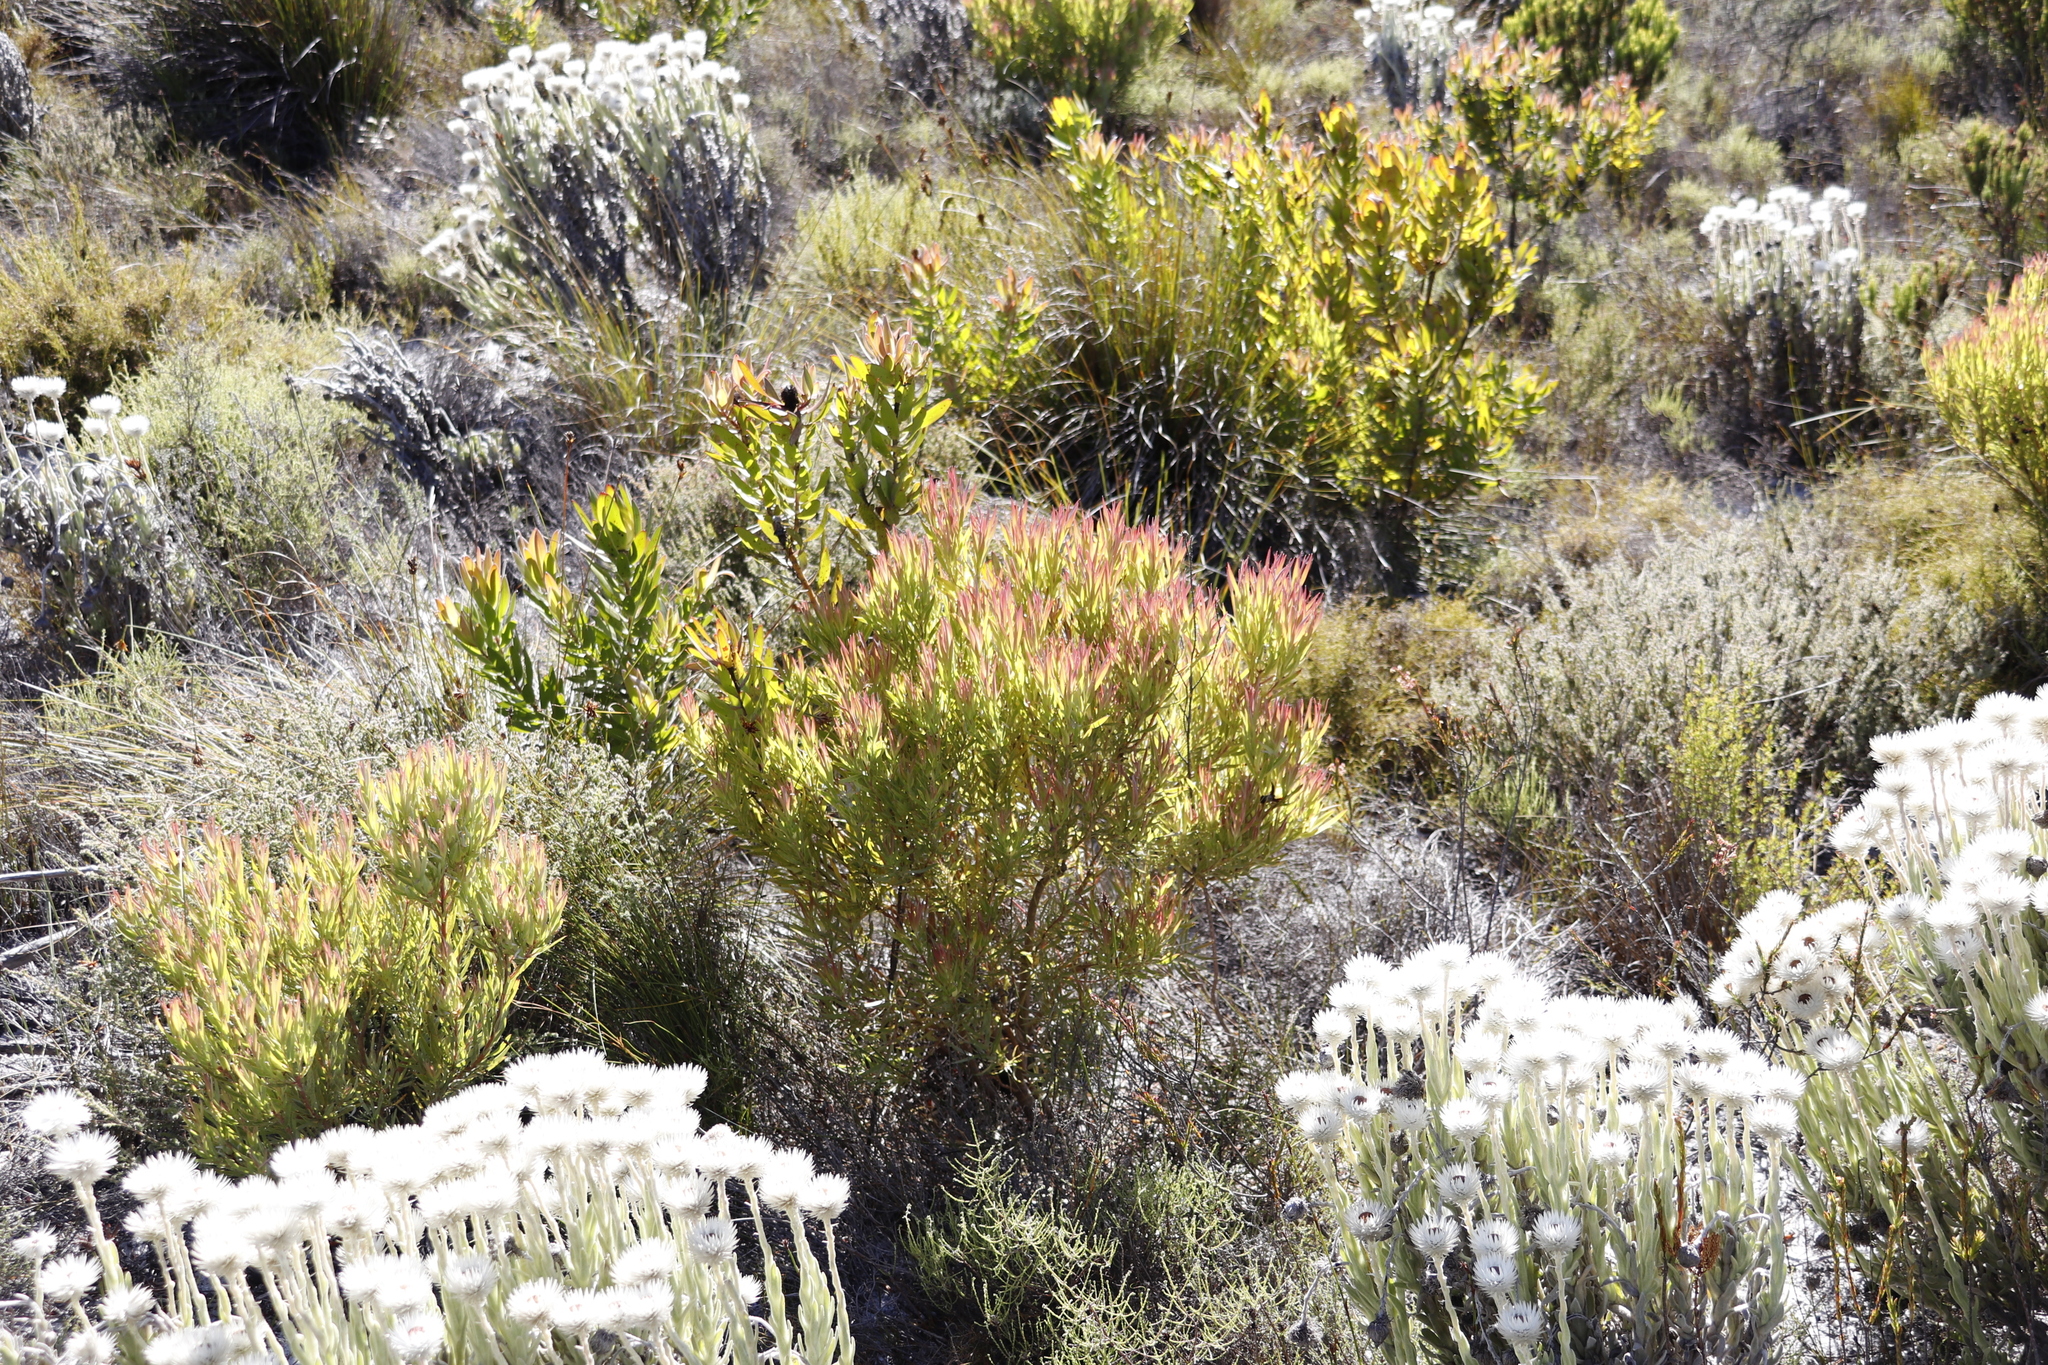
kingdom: Plantae
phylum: Tracheophyta
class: Magnoliopsida
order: Proteales
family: Proteaceae
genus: Leucadendron
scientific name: Leucadendron xanthoconus
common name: Sickle-leaf conebush
